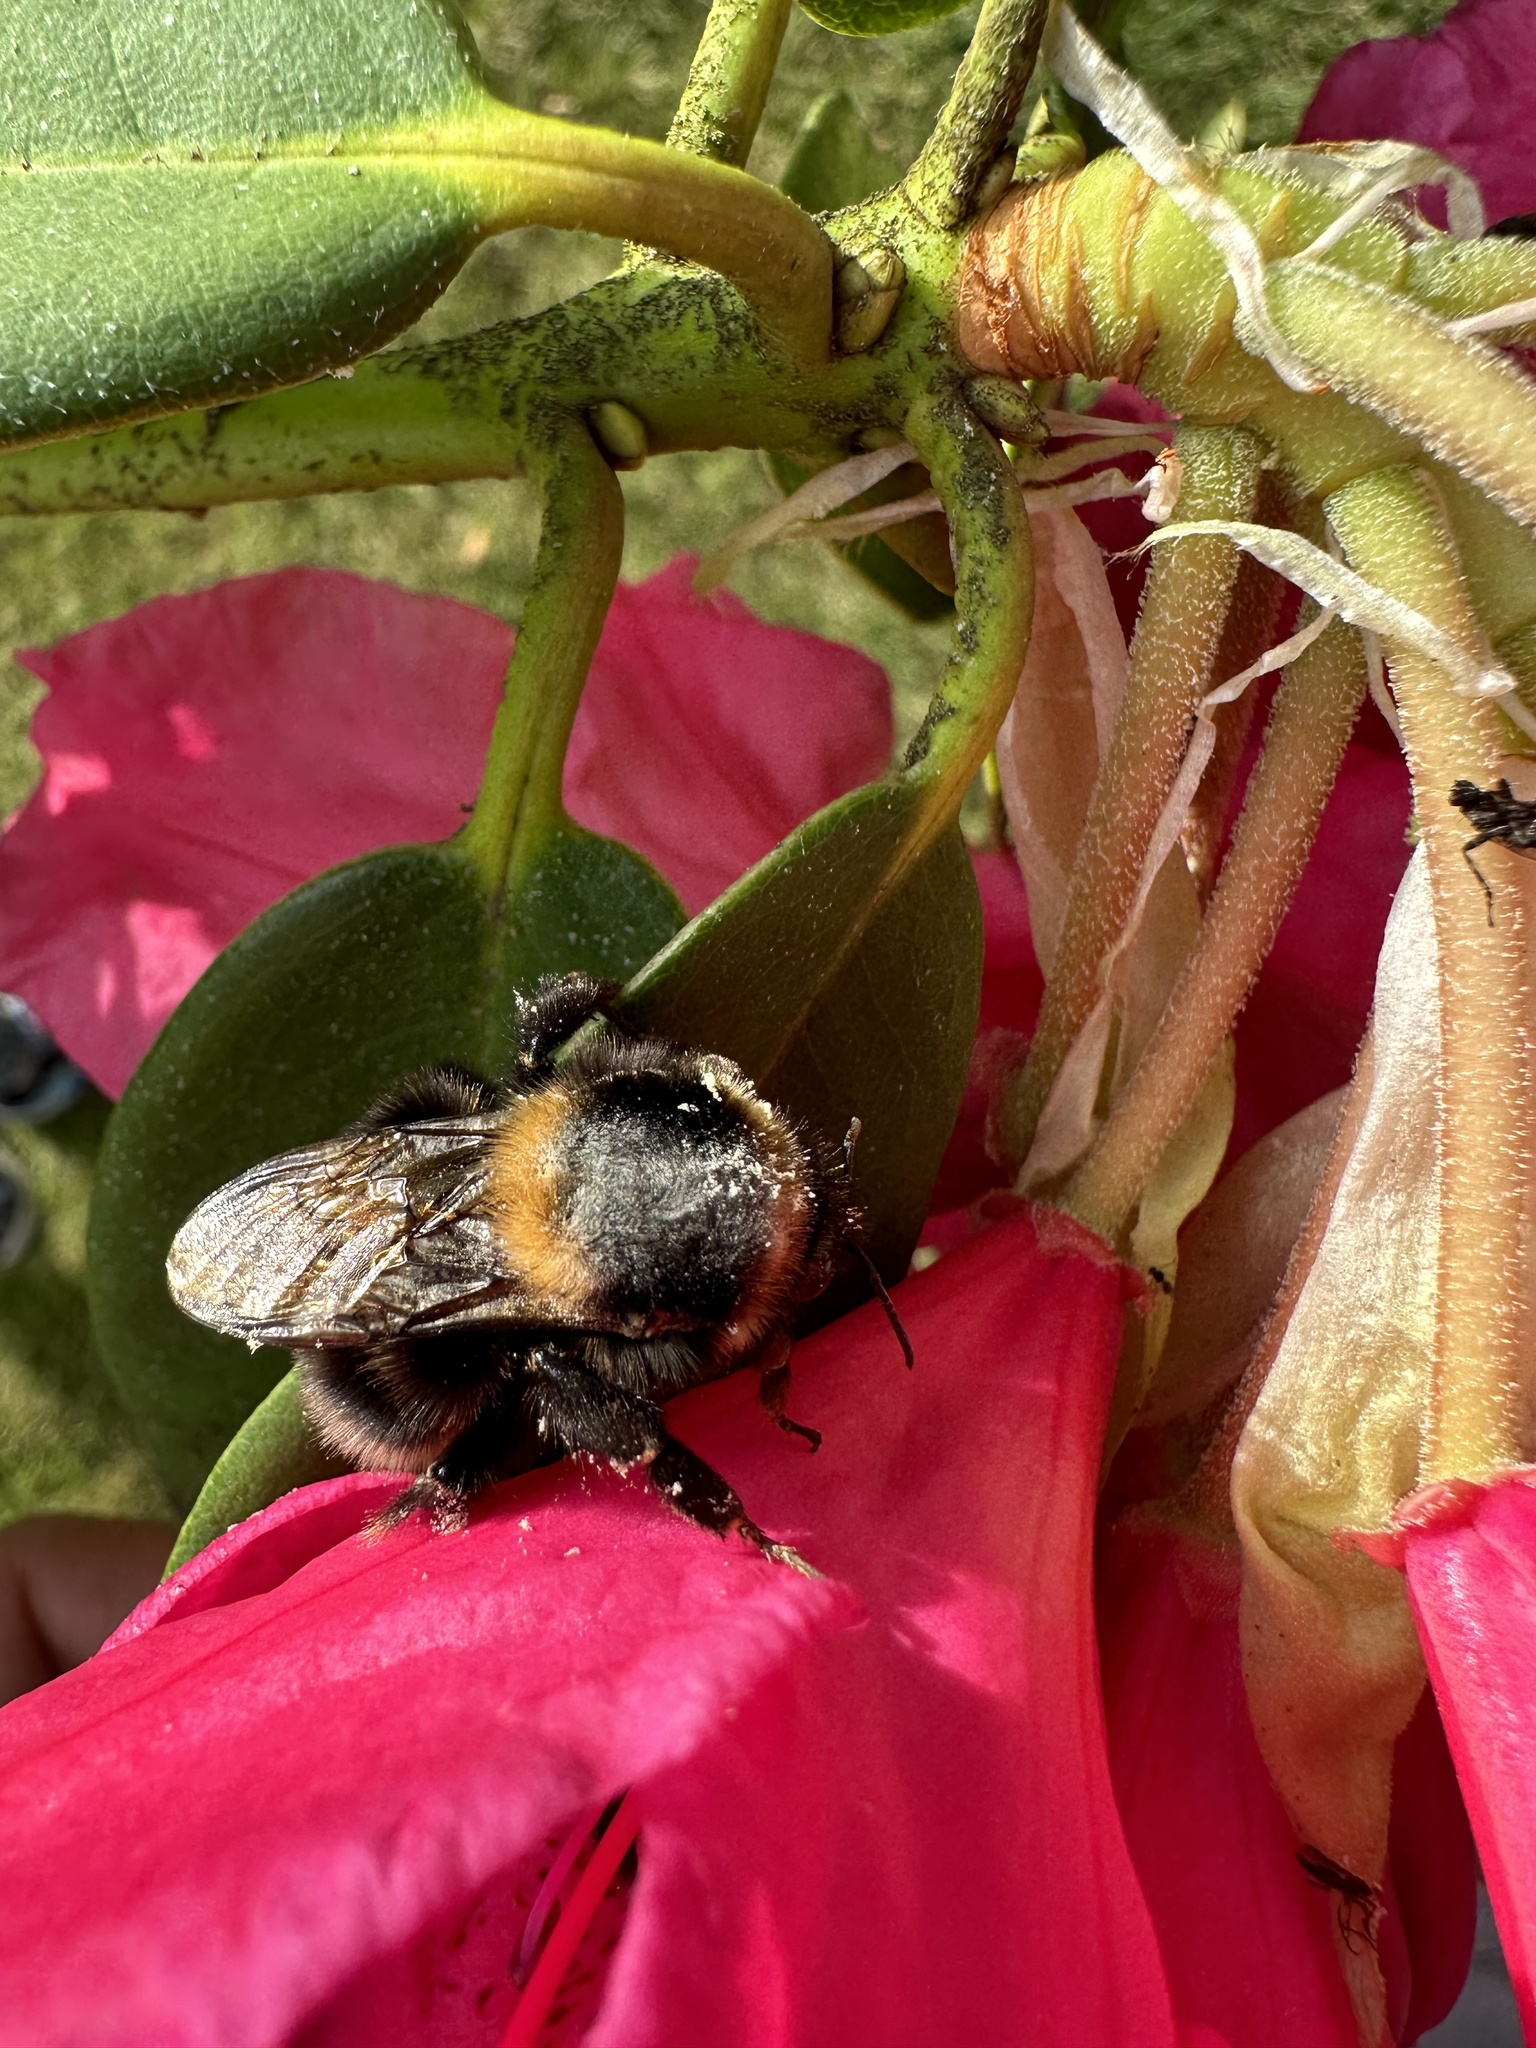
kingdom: Animalia
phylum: Arthropoda
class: Insecta
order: Hymenoptera
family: Apidae
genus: Bombus
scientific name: Bombus ruderatus
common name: Large garden bumblebee
